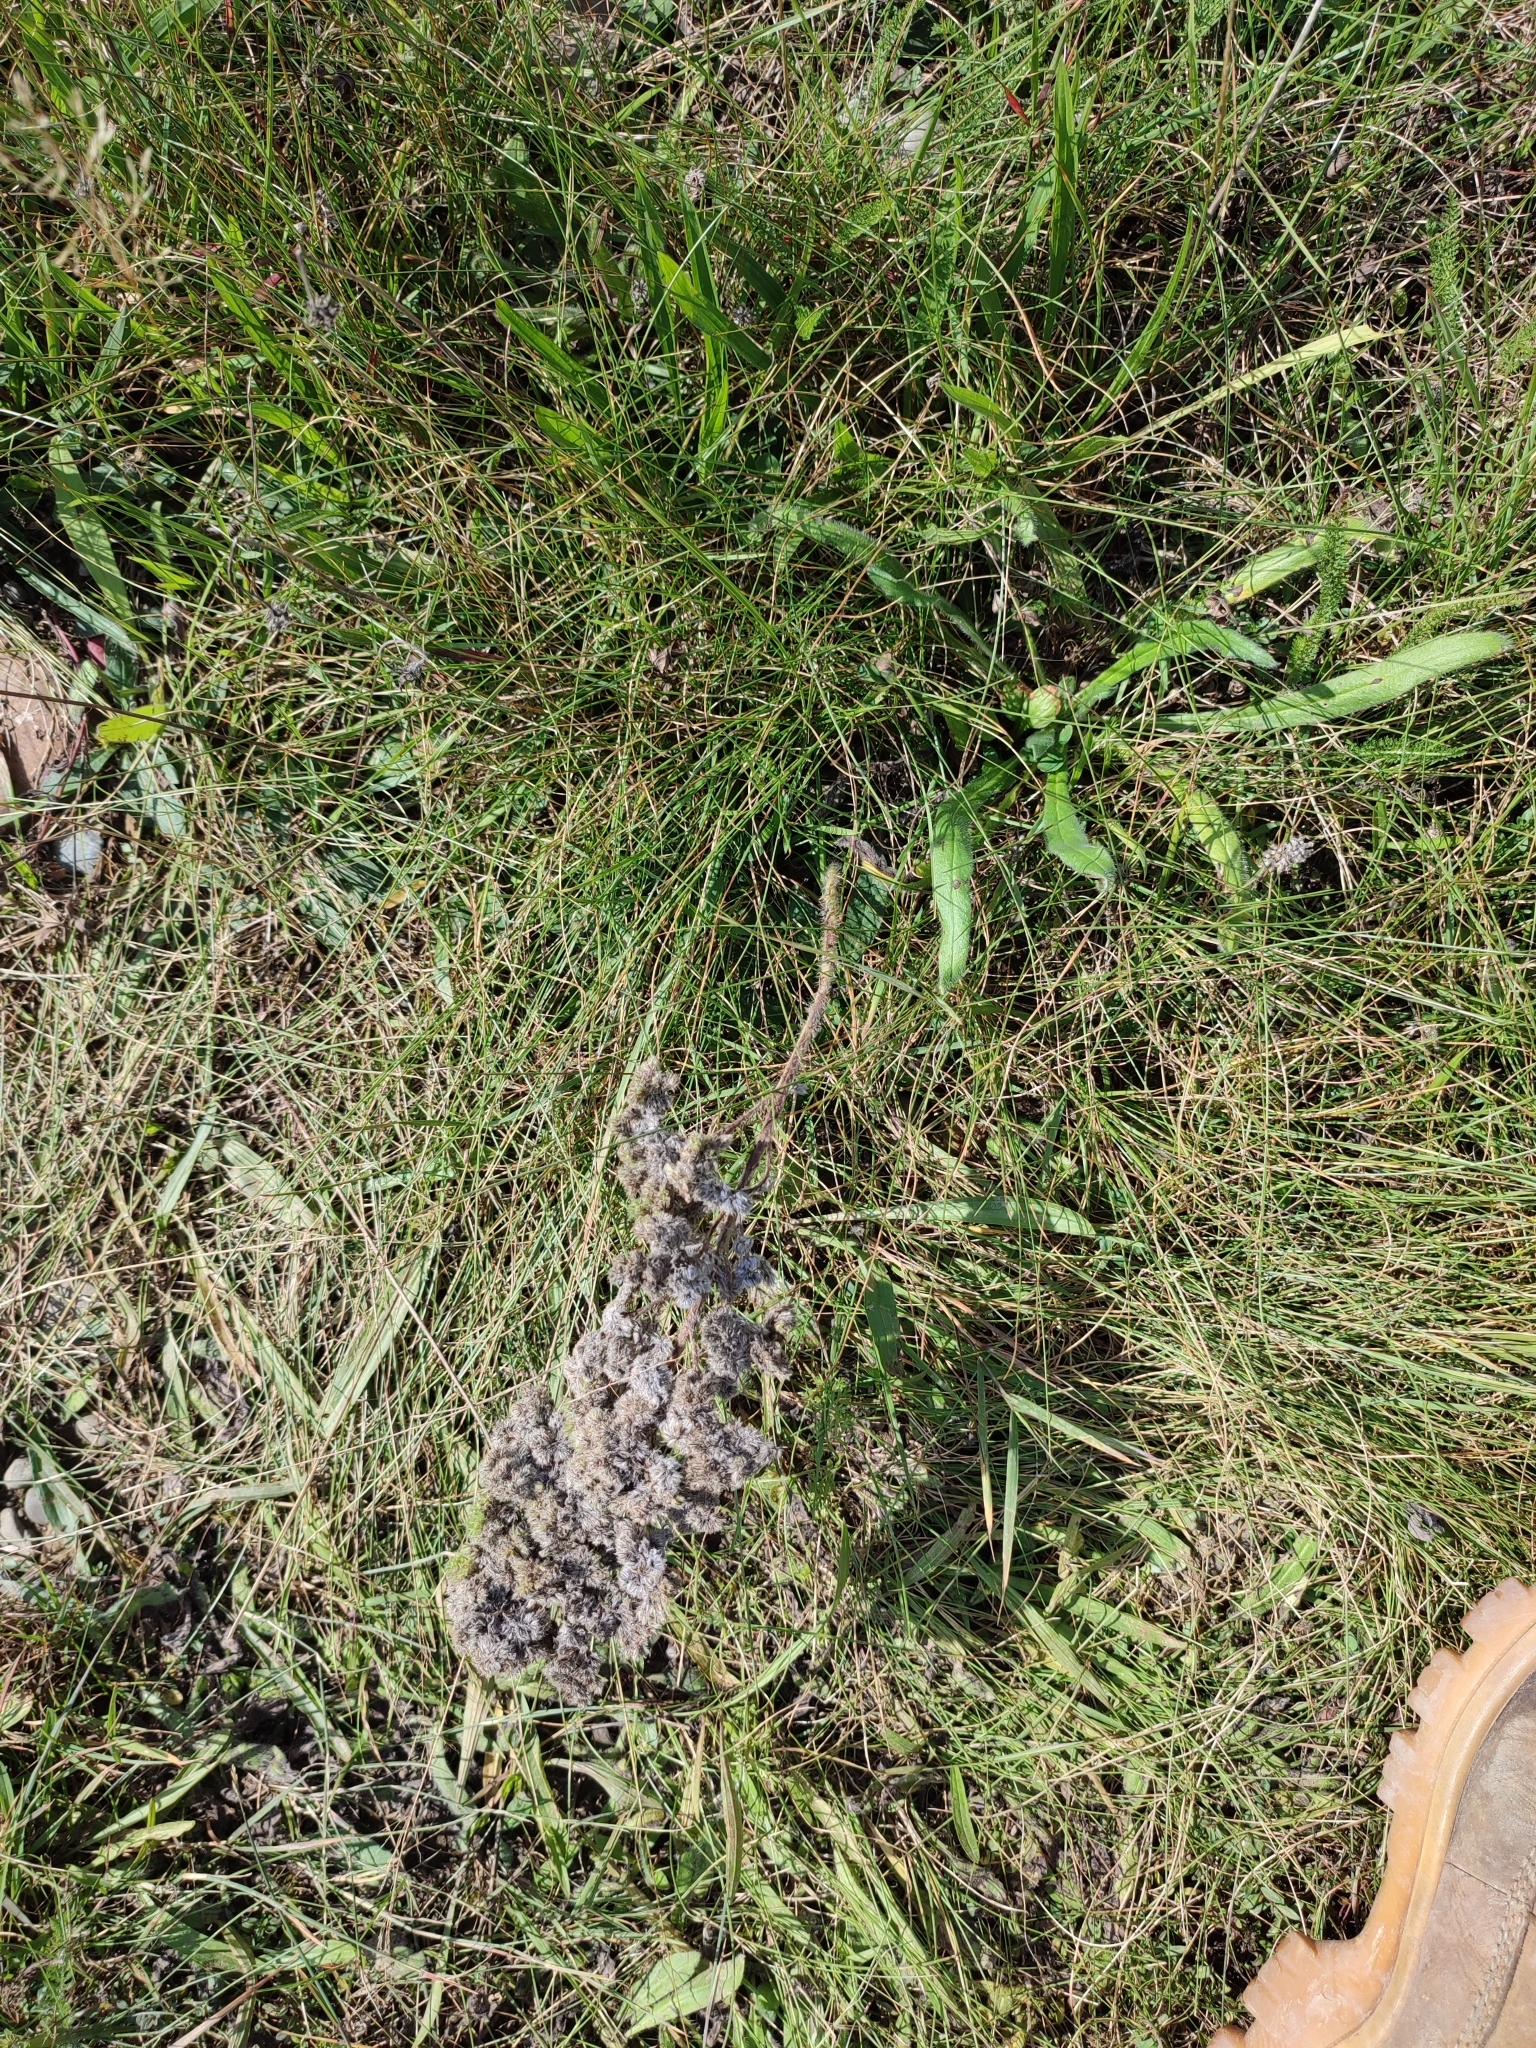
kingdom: Plantae
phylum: Tracheophyta
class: Magnoliopsida
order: Boraginales
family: Boraginaceae
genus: Echium
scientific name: Echium vulgare
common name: Common viper's bugloss
